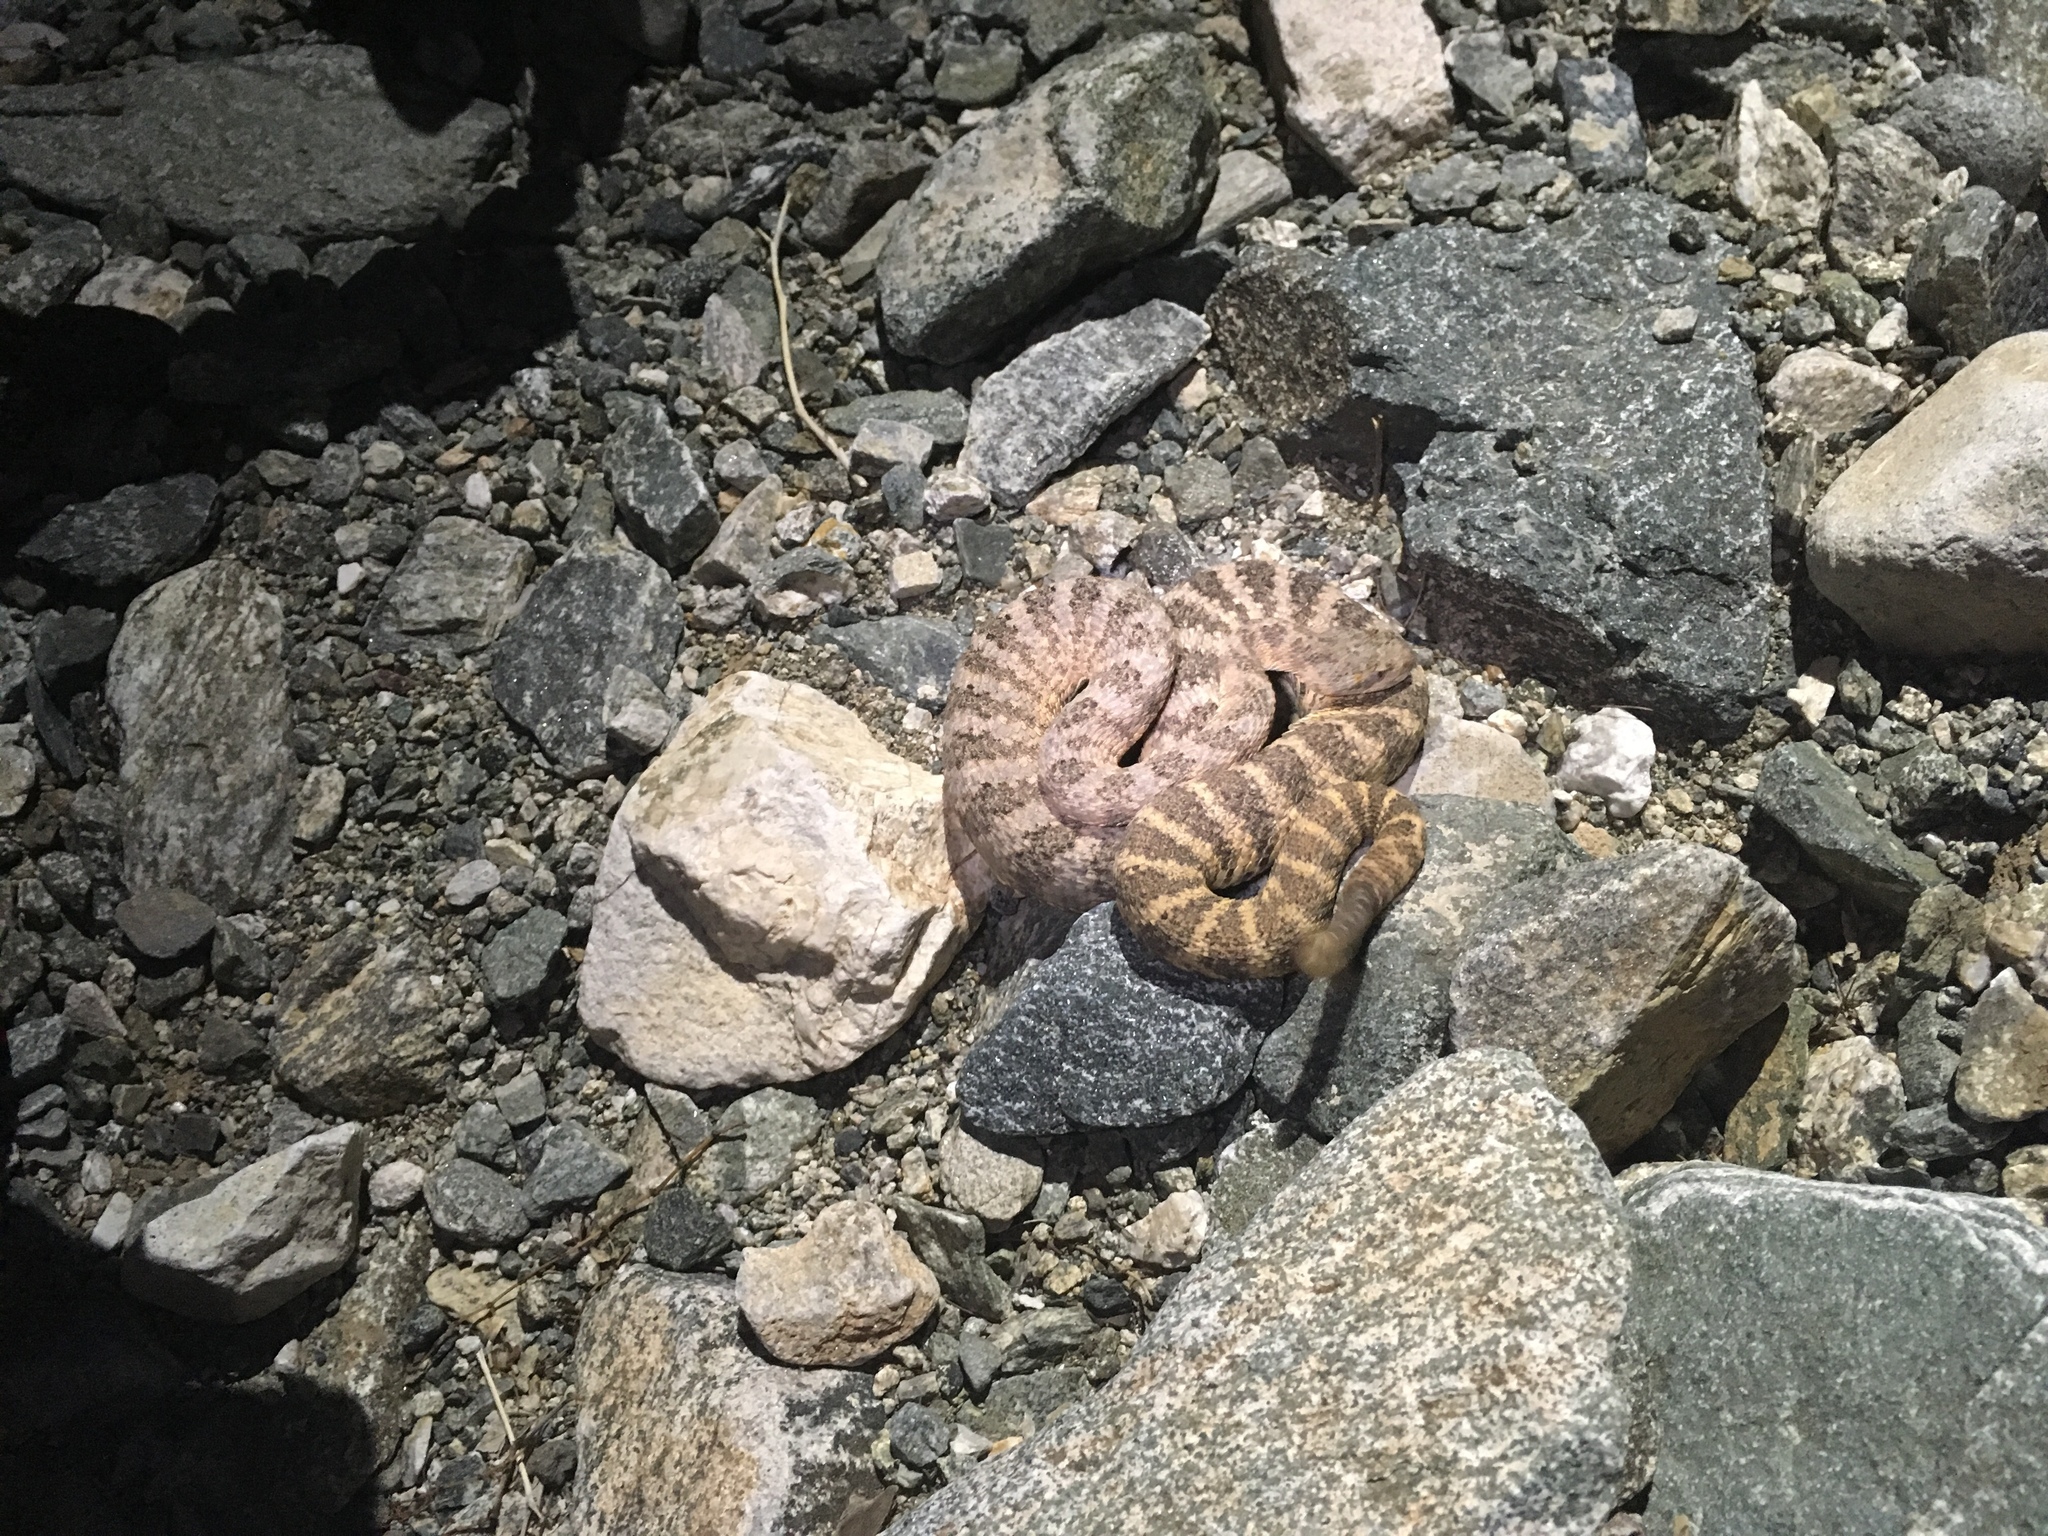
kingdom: Animalia
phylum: Chordata
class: Squamata
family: Viperidae
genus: Crotalus
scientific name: Crotalus tigris
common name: Tiger rattlesnake
